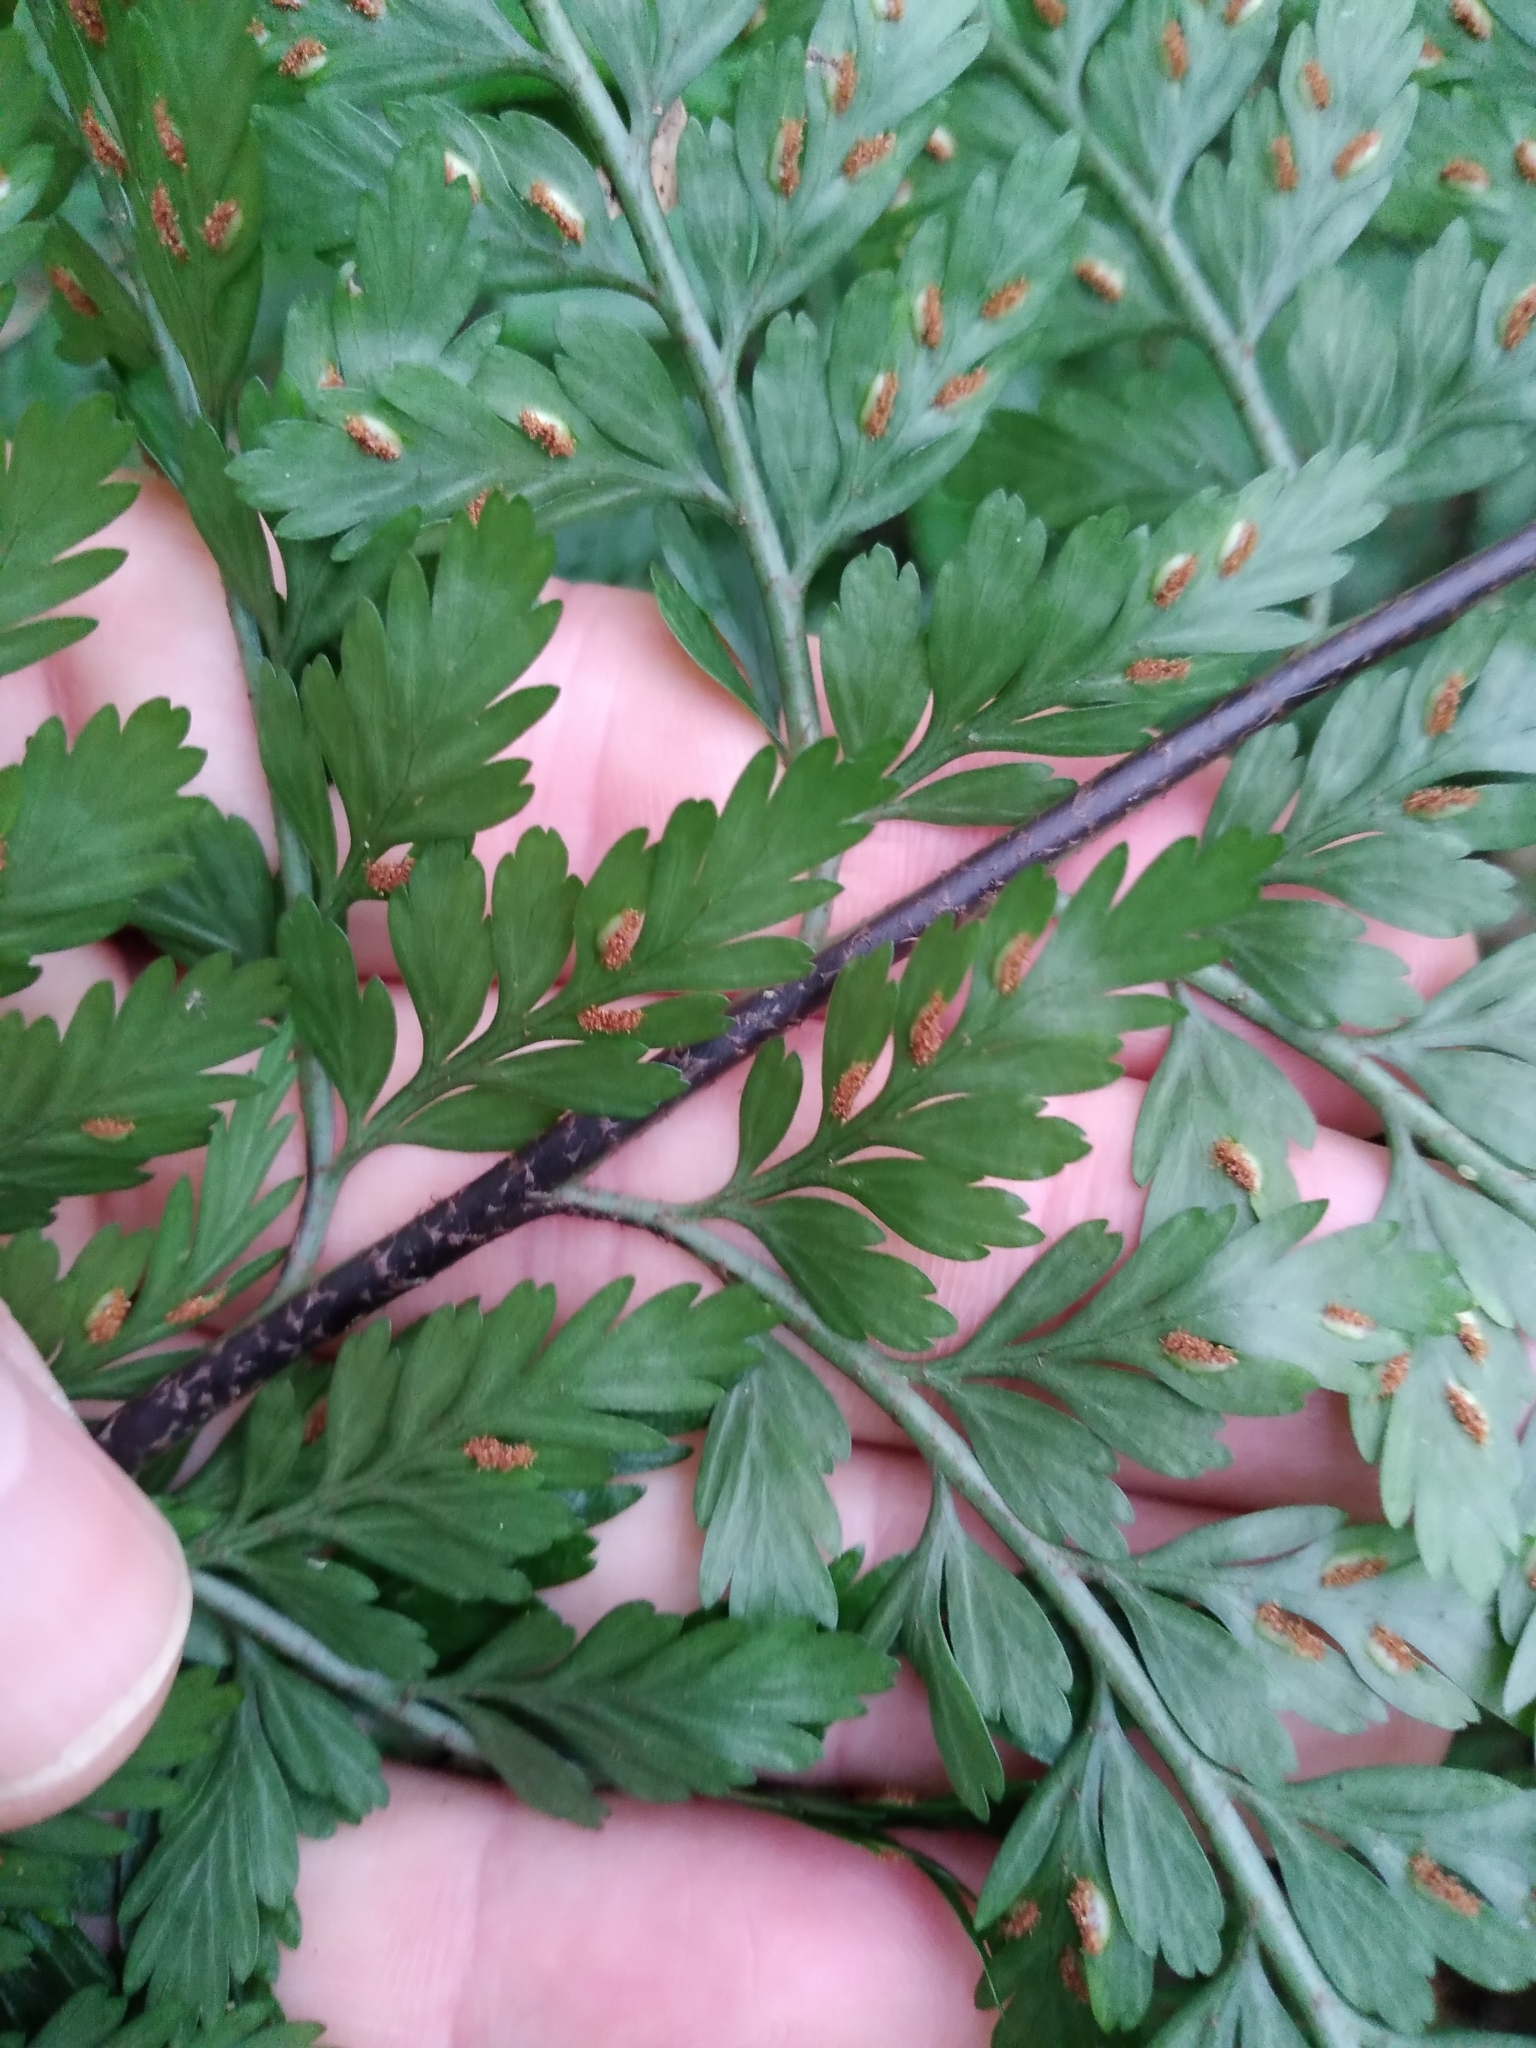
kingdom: Plantae
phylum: Tracheophyta
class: Polypodiopsida
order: Polypodiales
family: Aspleniaceae
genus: Asplenium
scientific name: Asplenium
